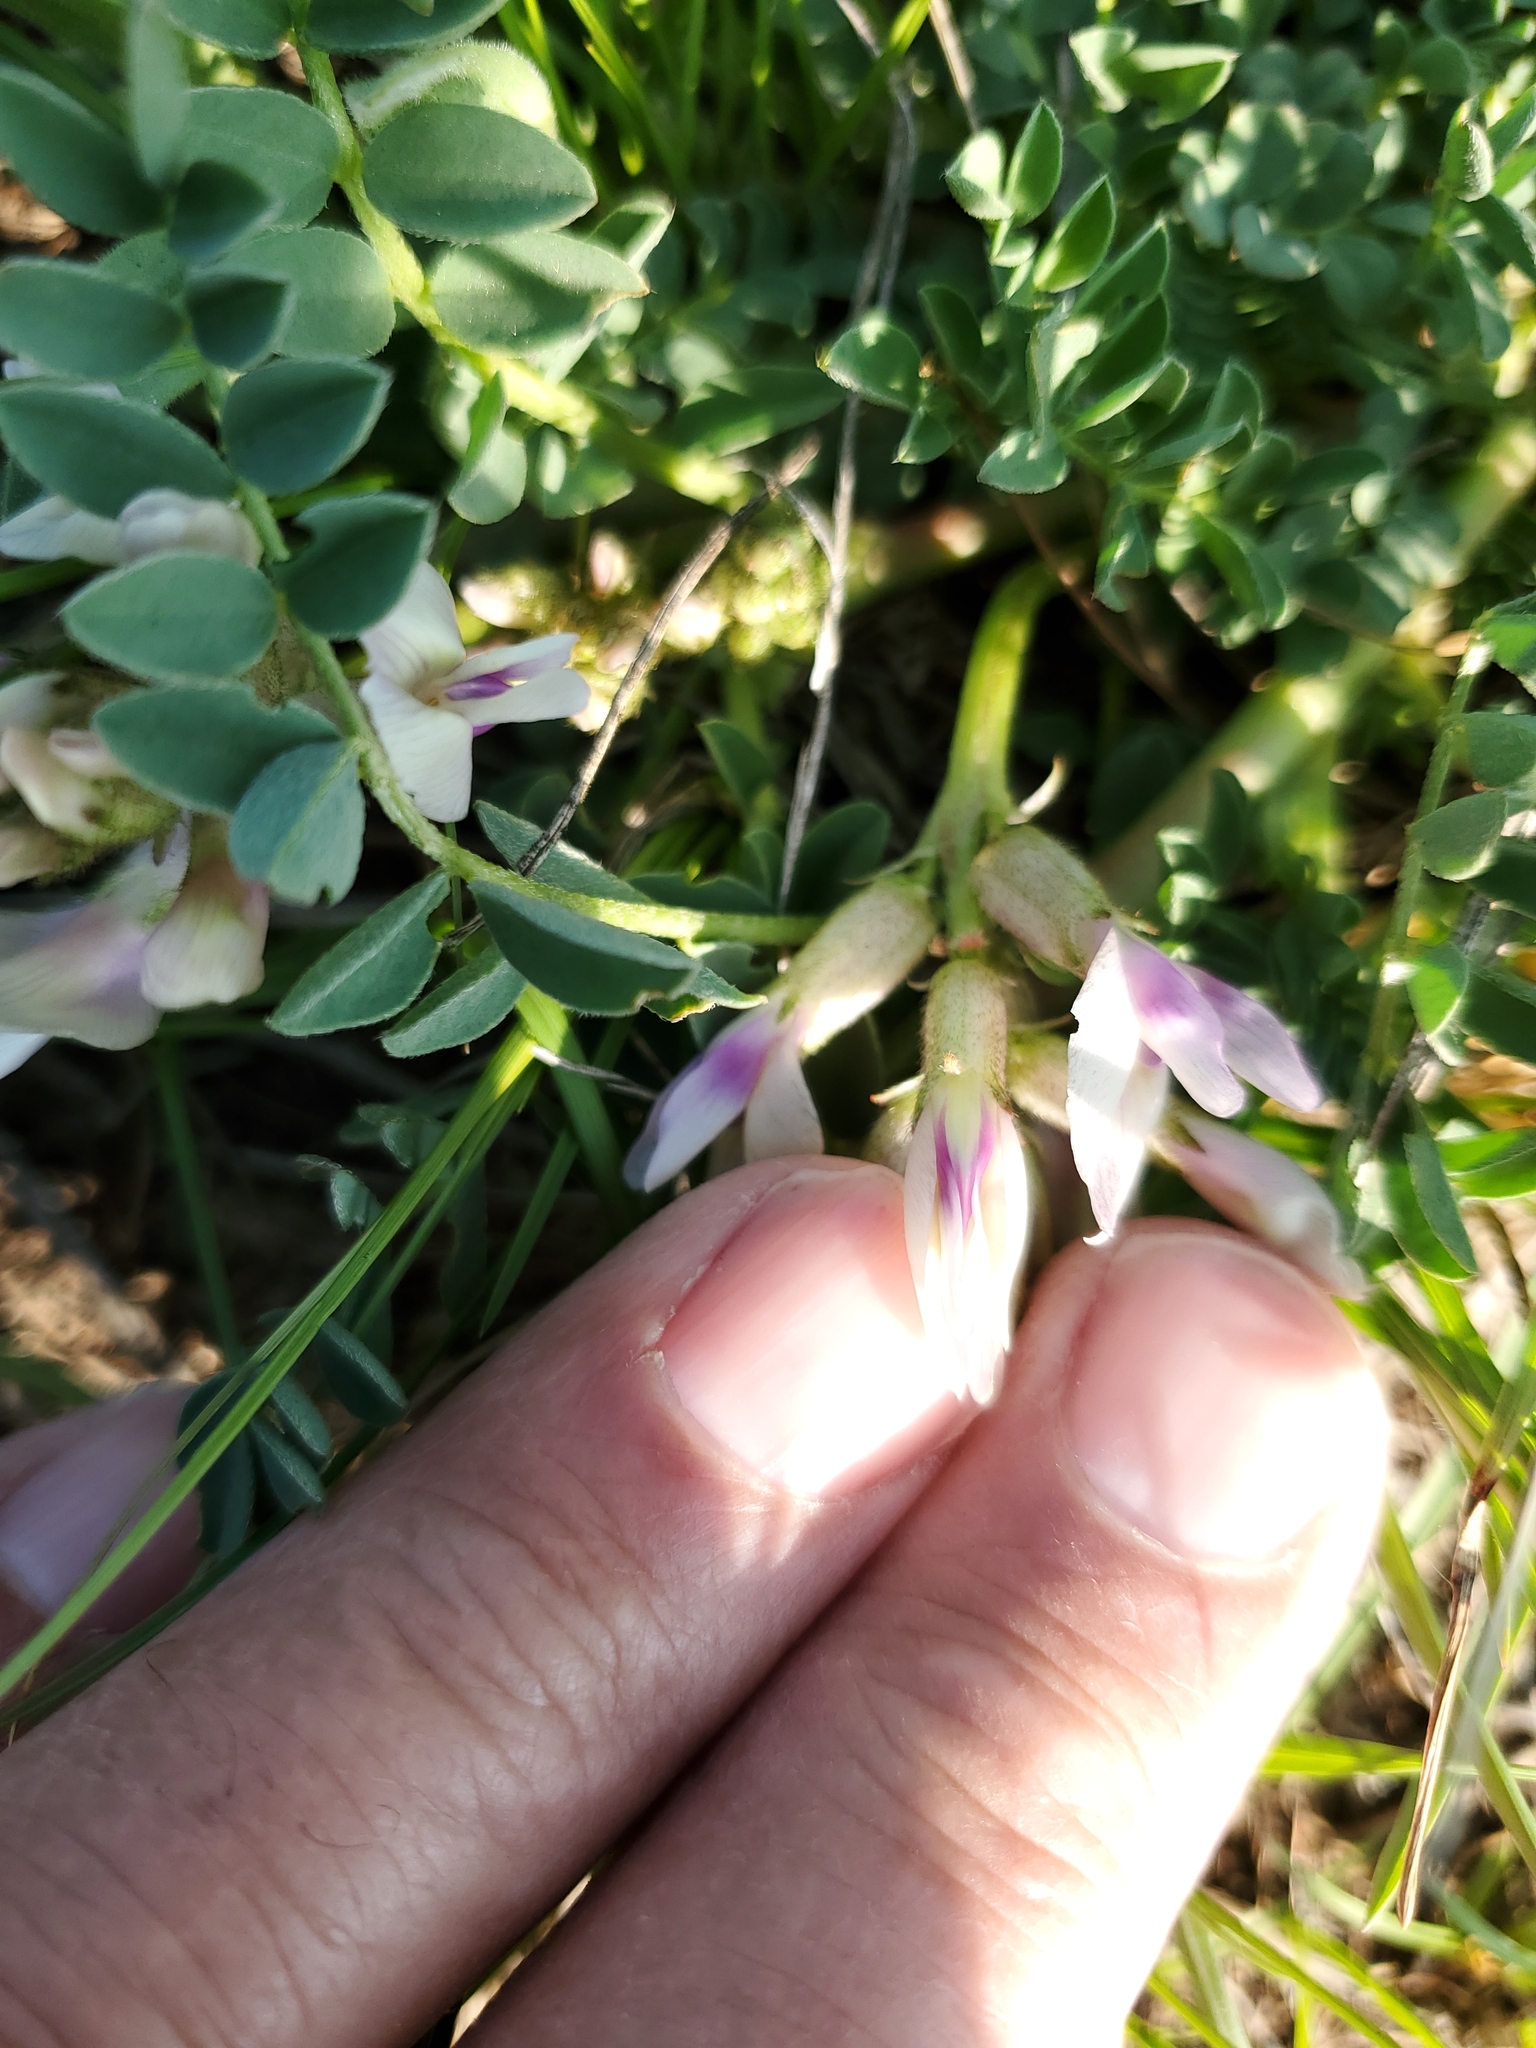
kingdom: Plantae
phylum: Tracheophyta
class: Magnoliopsida
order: Fabales
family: Fabaceae
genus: Astragalus
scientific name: Astragalus crassicarpus
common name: Ground-plum milk-vetch
